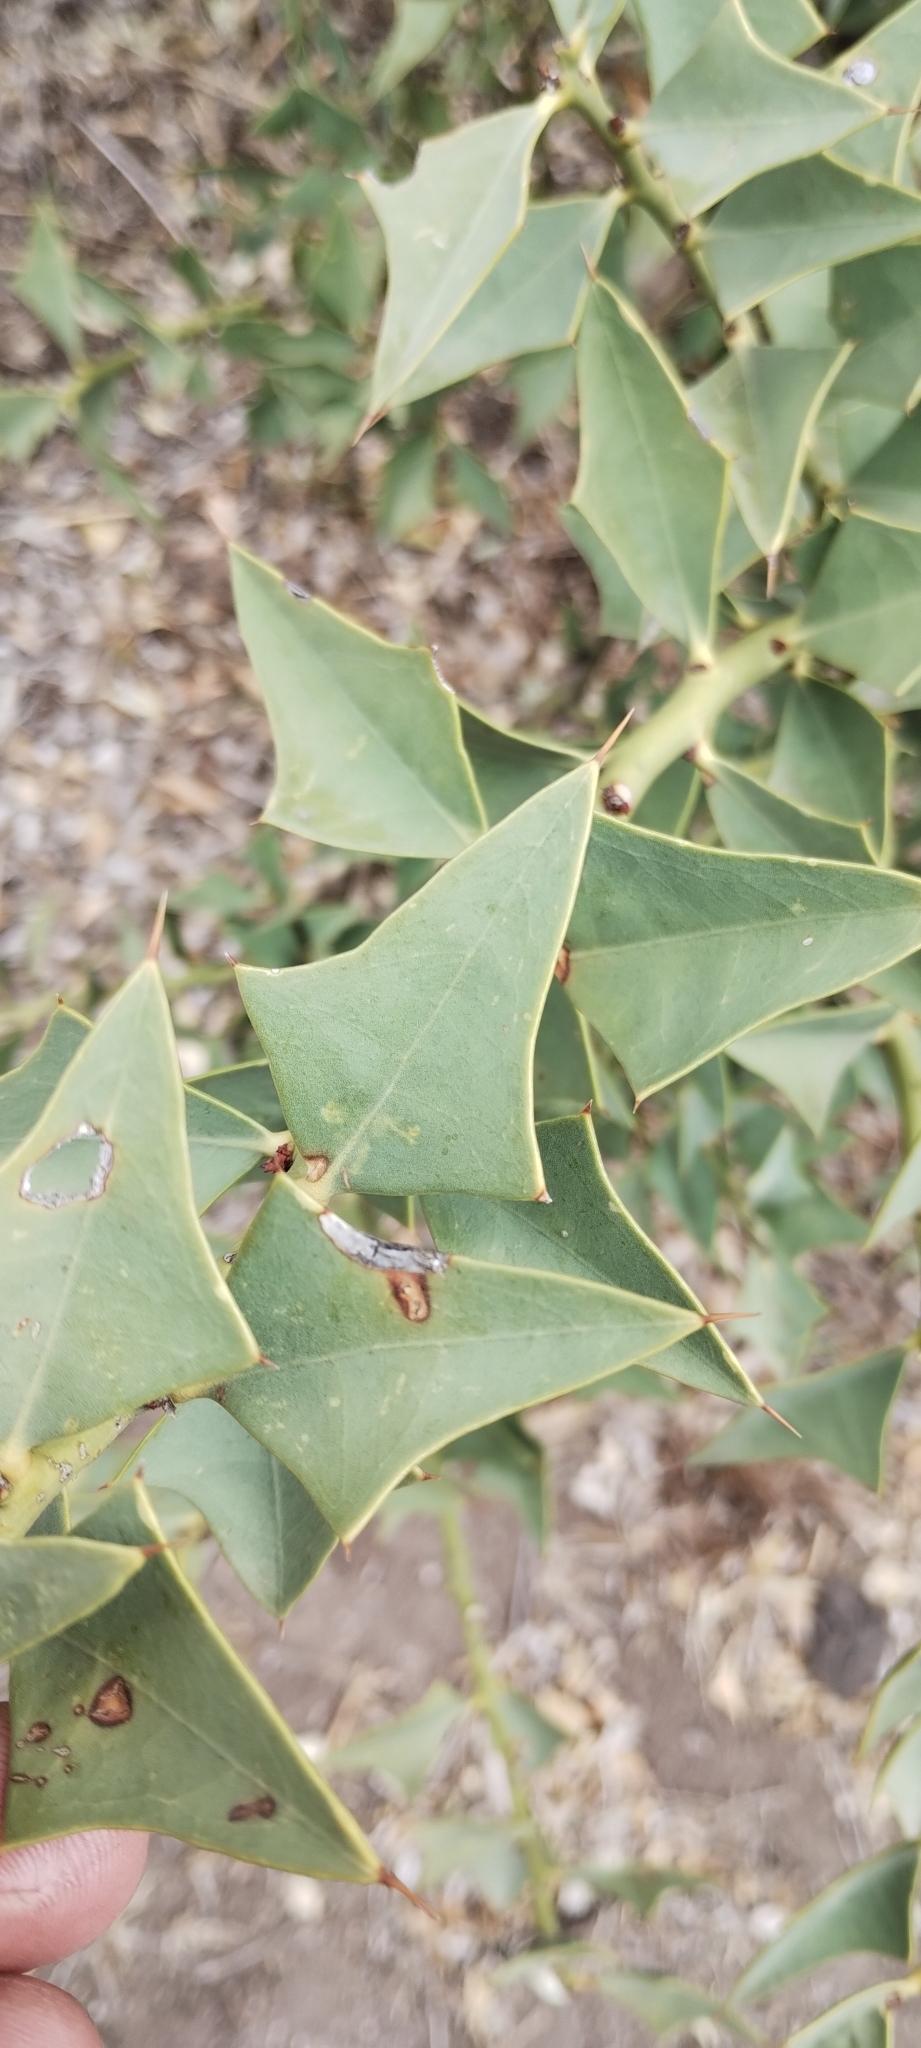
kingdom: Plantae
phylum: Tracheophyta
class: Magnoliopsida
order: Santalales
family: Cervantesiaceae
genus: Jodina
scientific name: Jodina rhombifolia
